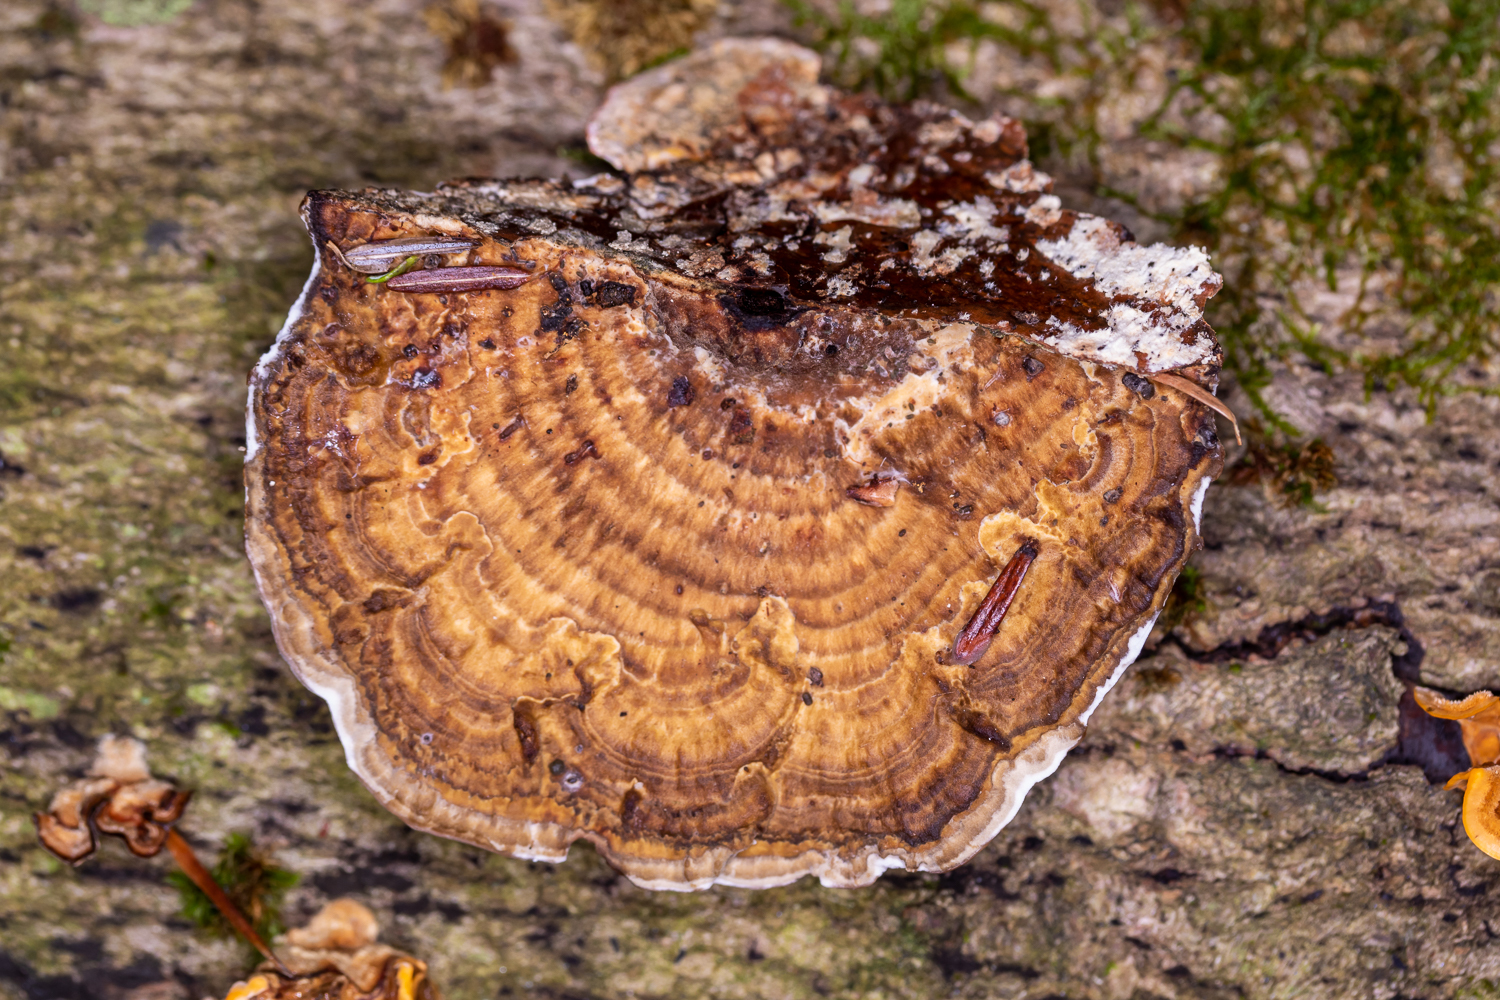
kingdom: Fungi
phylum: Basidiomycota
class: Agaricomycetes
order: Polyporales
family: Polyporaceae
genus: Daedaleopsis
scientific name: Daedaleopsis confragosa
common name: Blushing bracket
